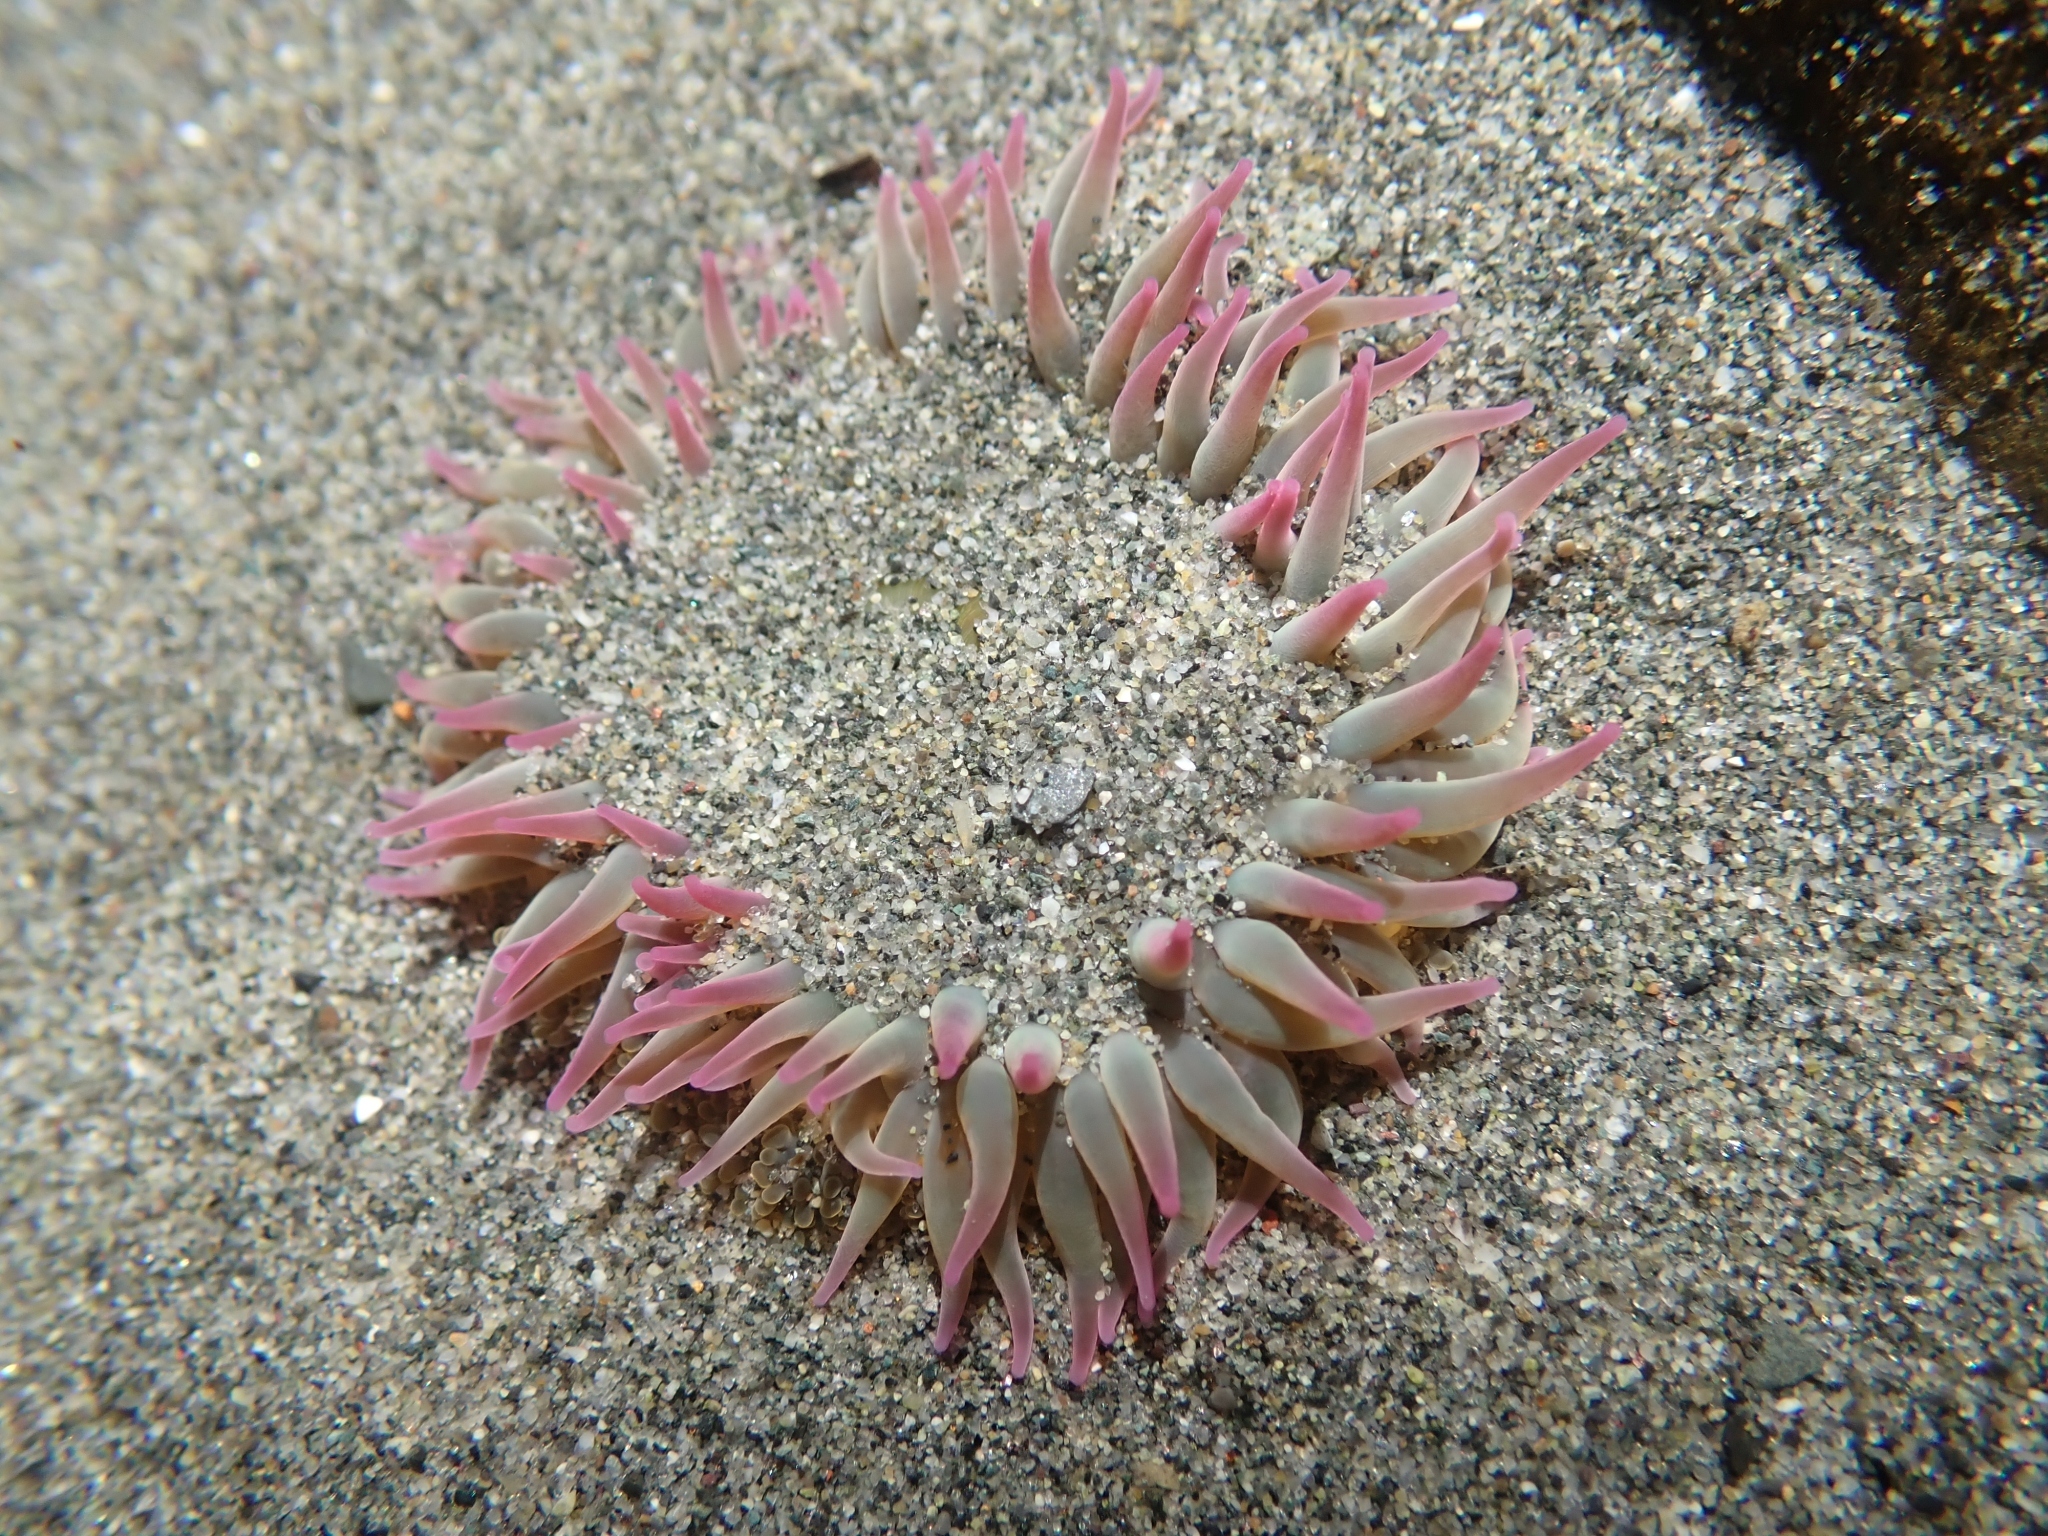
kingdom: Animalia
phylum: Cnidaria
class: Anthozoa
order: Actiniaria
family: Actiniidae
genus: Anthopleura
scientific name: Anthopleura elegantissima
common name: Clonal anemone
